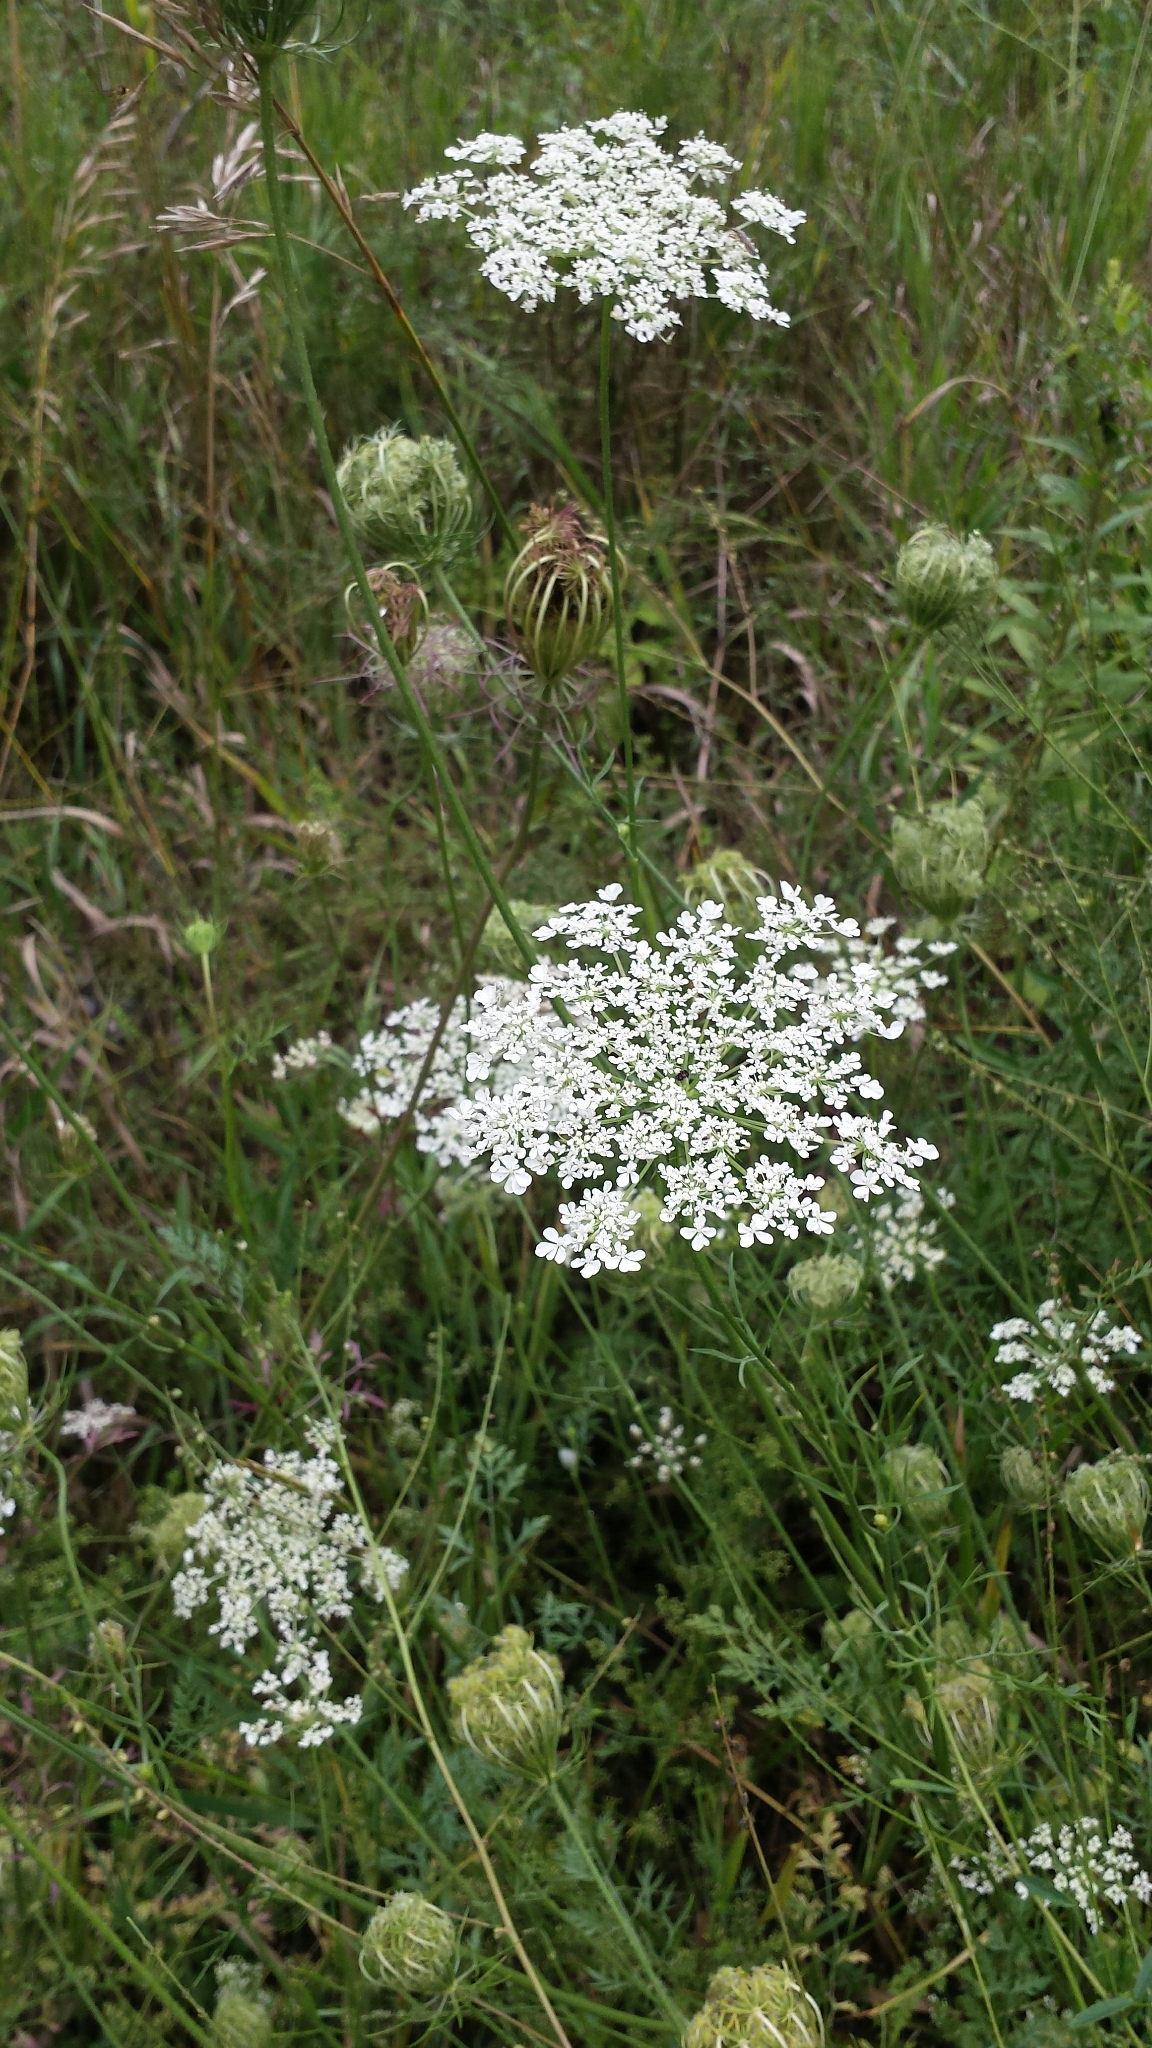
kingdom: Plantae
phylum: Tracheophyta
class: Magnoliopsida
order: Apiales
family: Apiaceae
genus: Daucus
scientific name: Daucus carota
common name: Wild carrot
